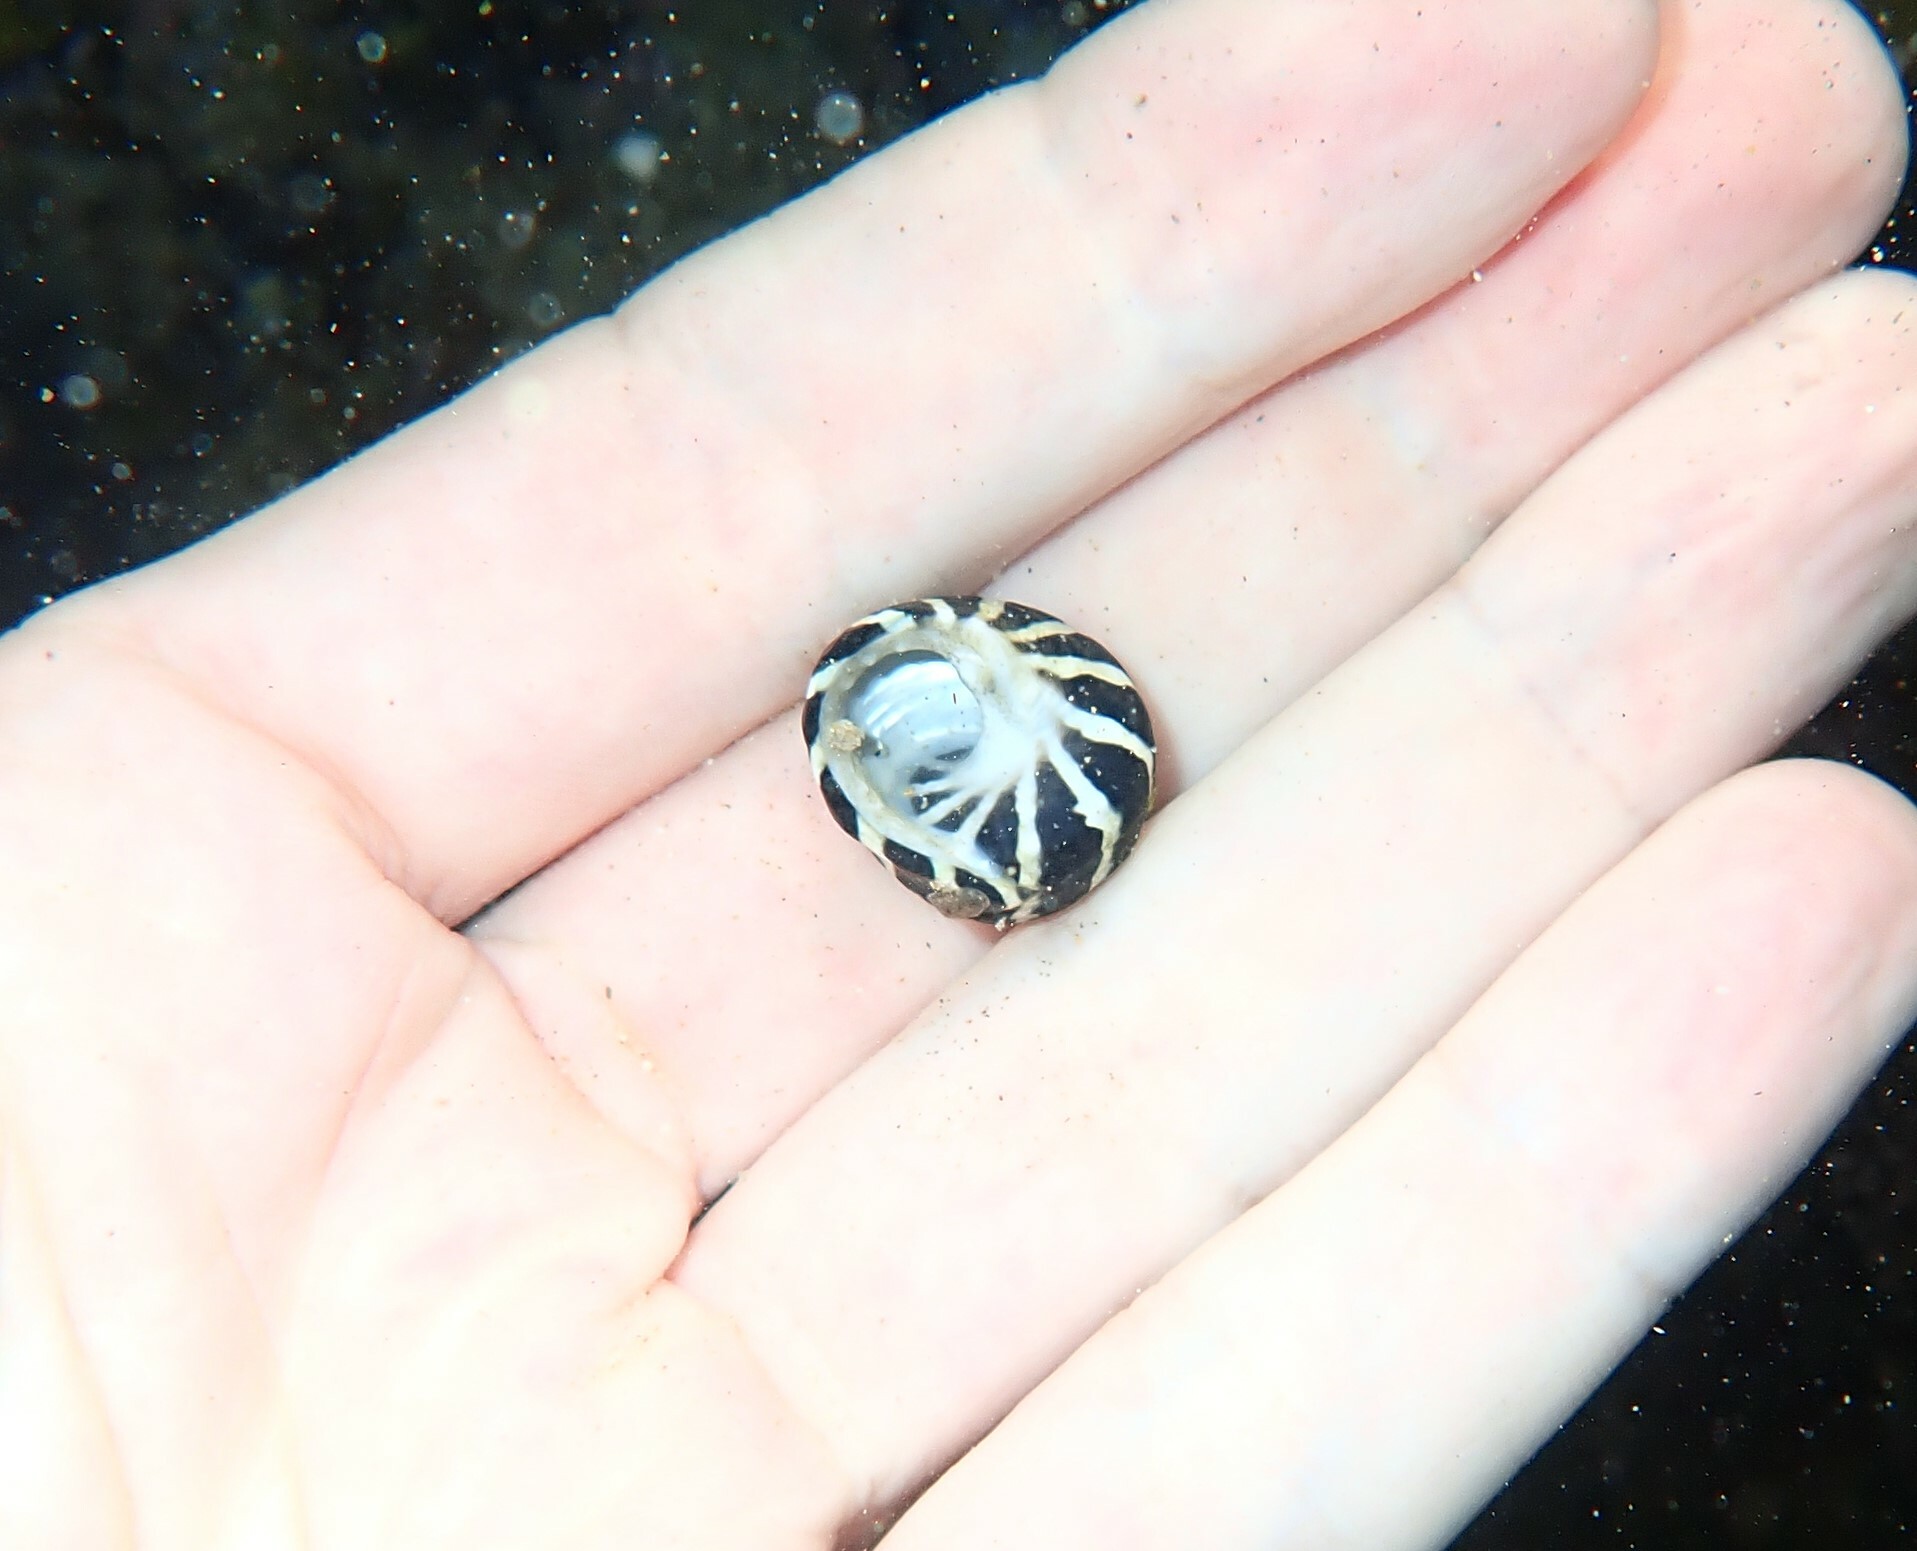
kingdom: Animalia
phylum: Mollusca
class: Gastropoda
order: Trochida
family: Trochidae
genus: Austrocochlea
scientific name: Austrocochlea porcata
